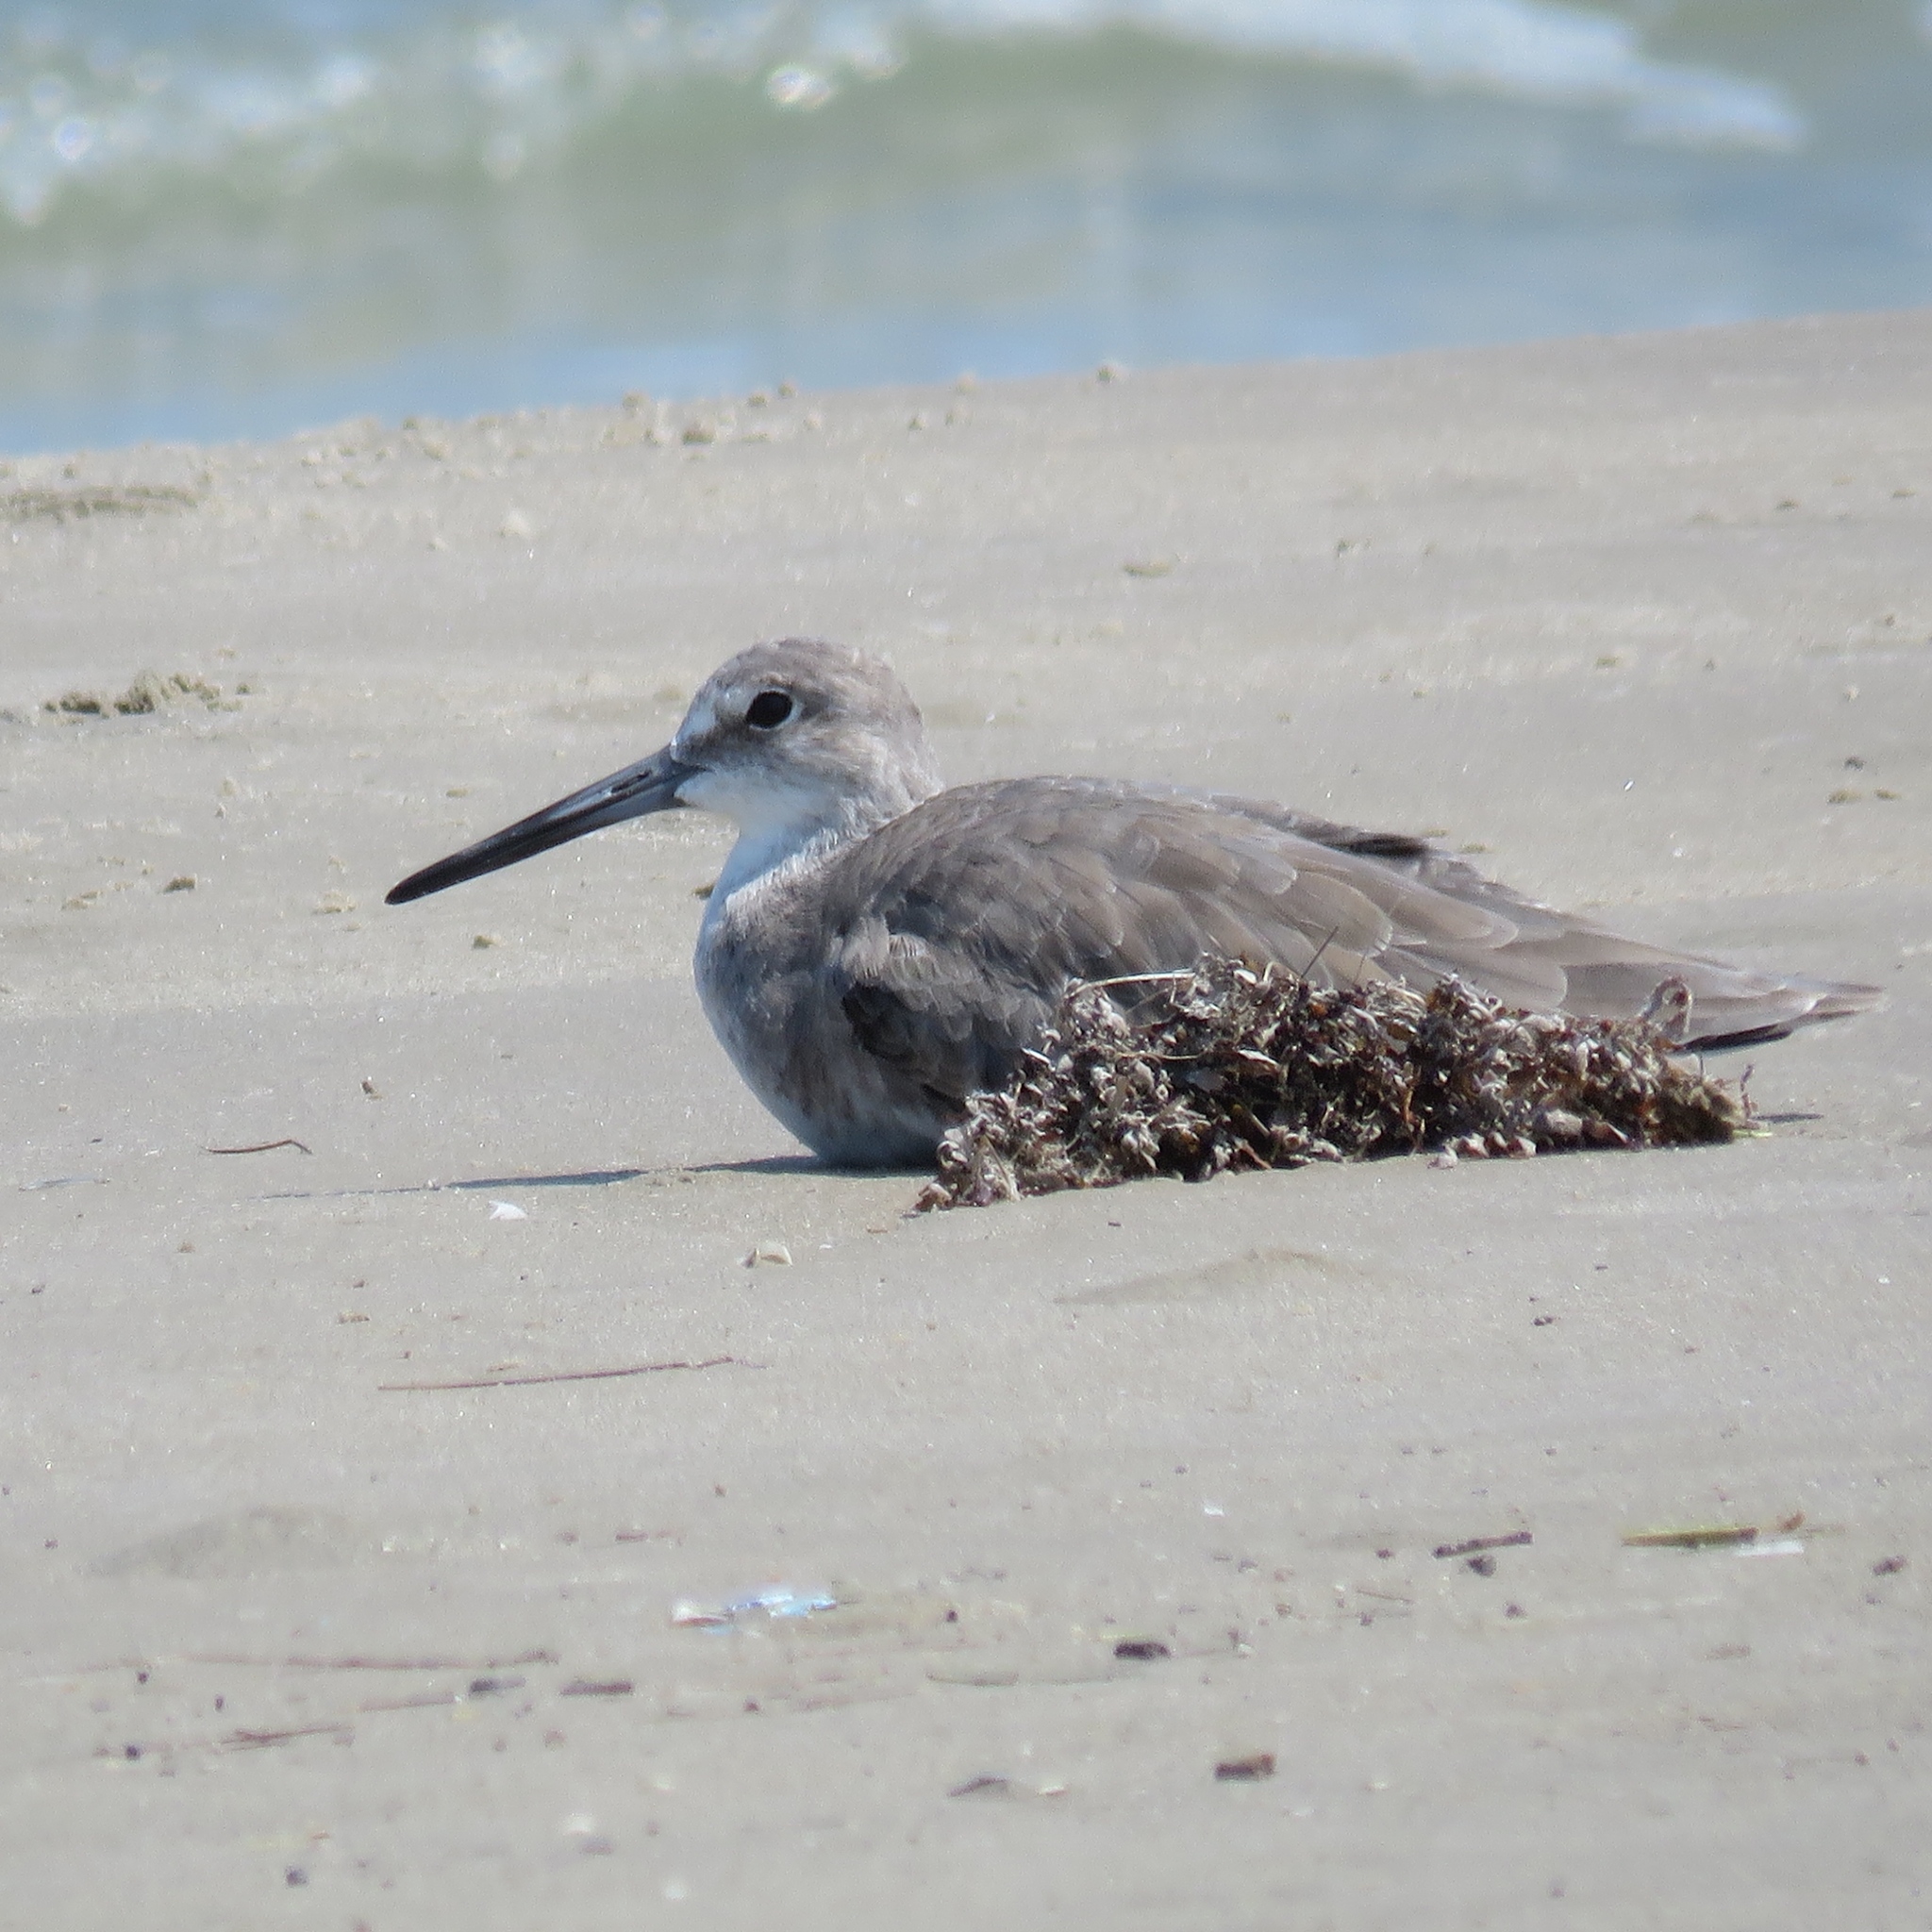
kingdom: Animalia
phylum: Chordata
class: Aves
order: Charadriiformes
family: Scolopacidae
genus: Tringa
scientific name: Tringa semipalmata
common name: Willet
